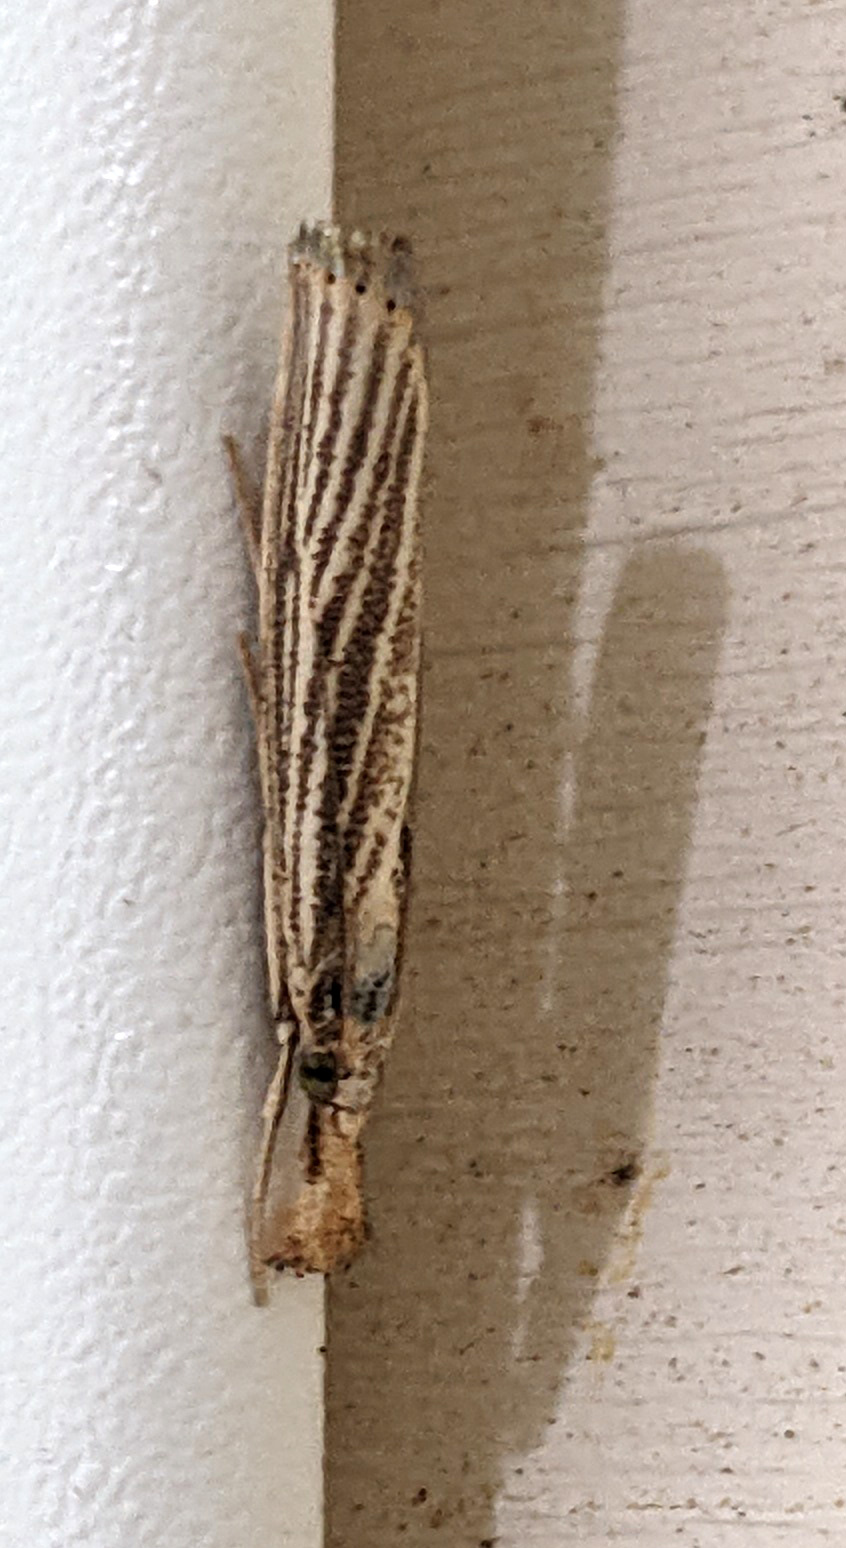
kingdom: Animalia
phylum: Arthropoda
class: Insecta
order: Lepidoptera
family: Crambidae
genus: Agriphila
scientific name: Agriphila vulgivagellus
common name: Vagabond crambus moth
